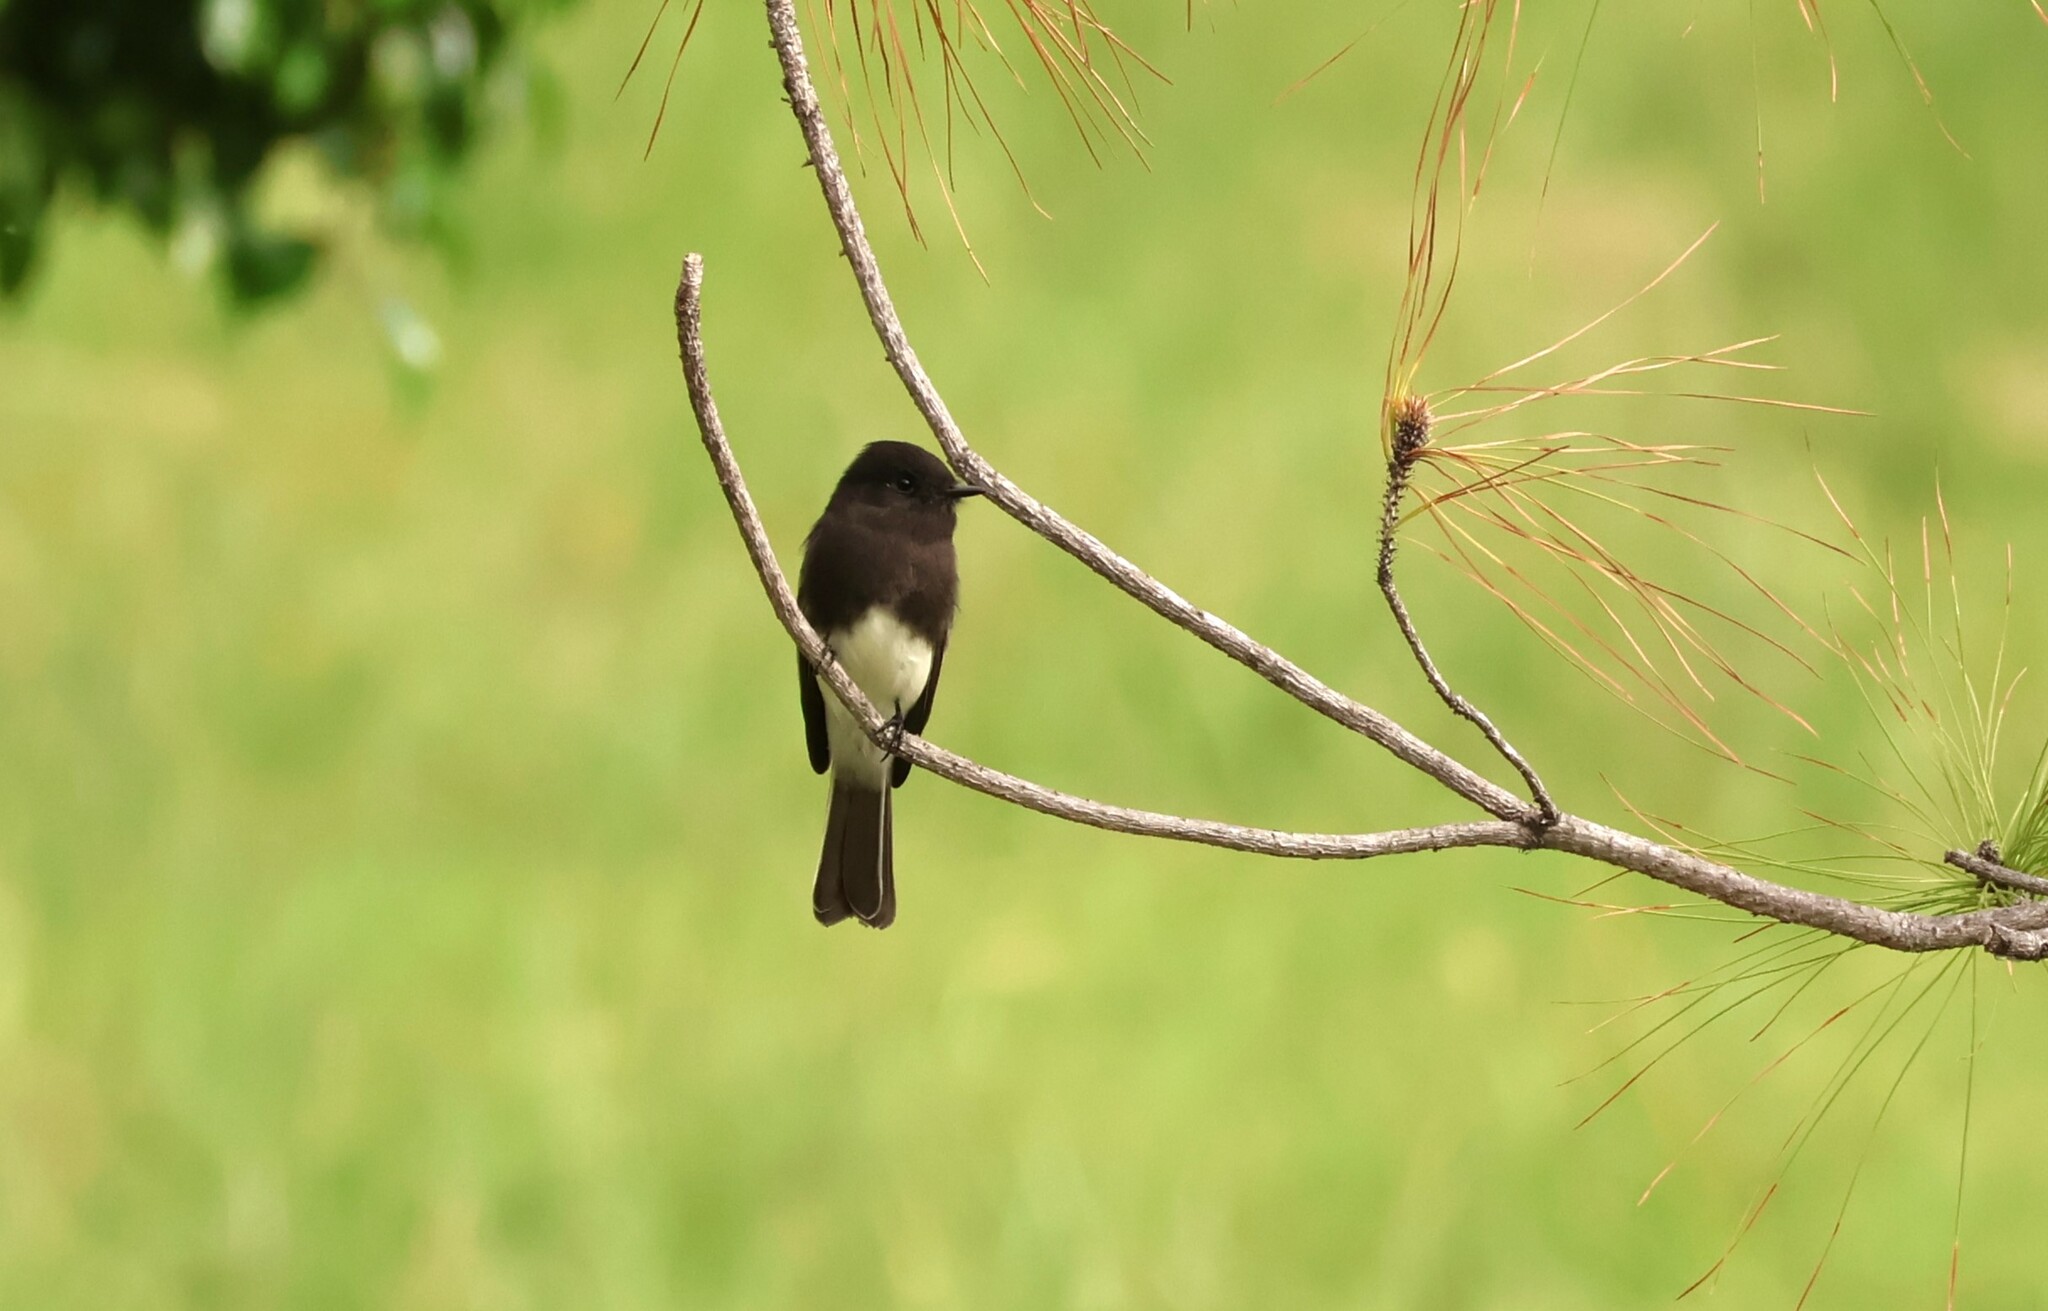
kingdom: Animalia
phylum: Chordata
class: Aves
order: Passeriformes
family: Tyrannidae
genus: Sayornis
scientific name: Sayornis nigricans
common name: Black phoebe
